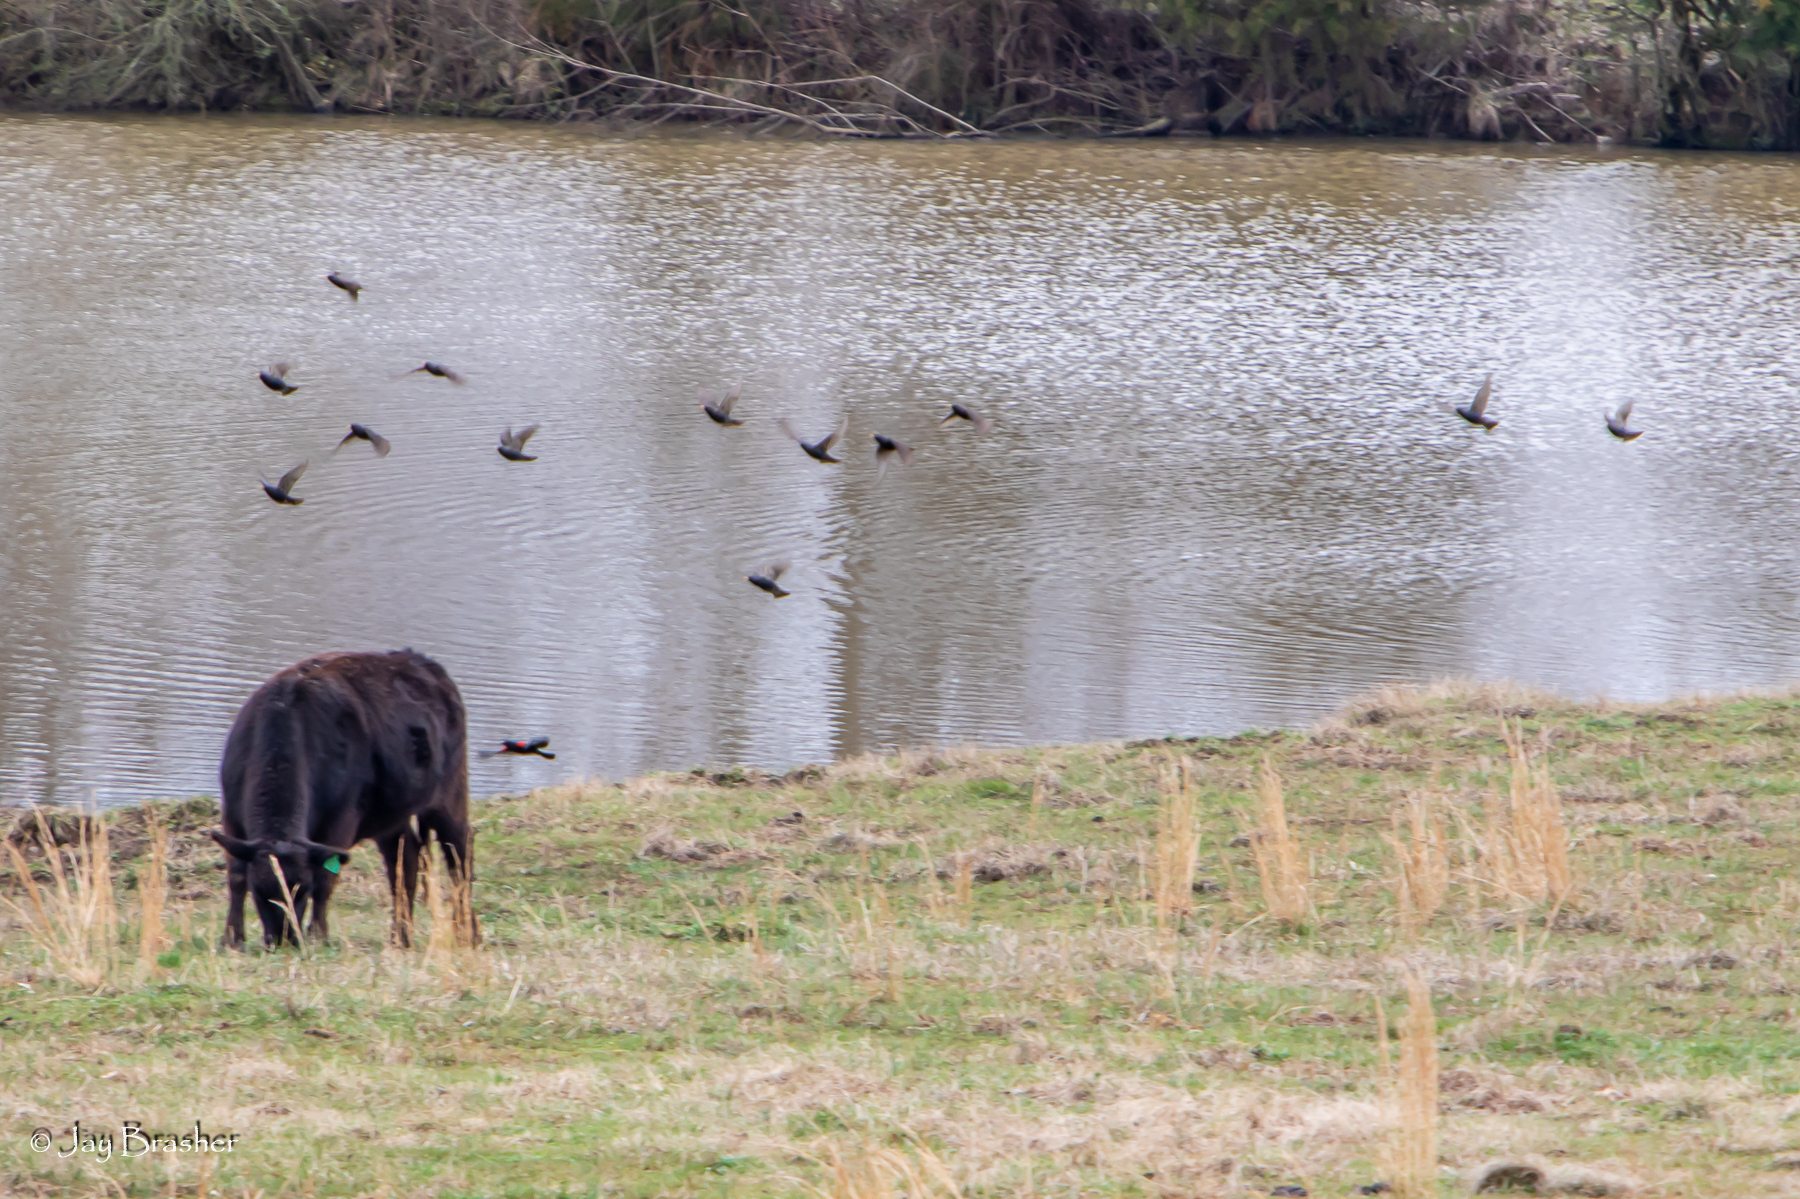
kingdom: Animalia
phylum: Chordata
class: Aves
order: Passeriformes
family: Sturnidae
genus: Sturnus
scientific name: Sturnus vulgaris
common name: Common starling
